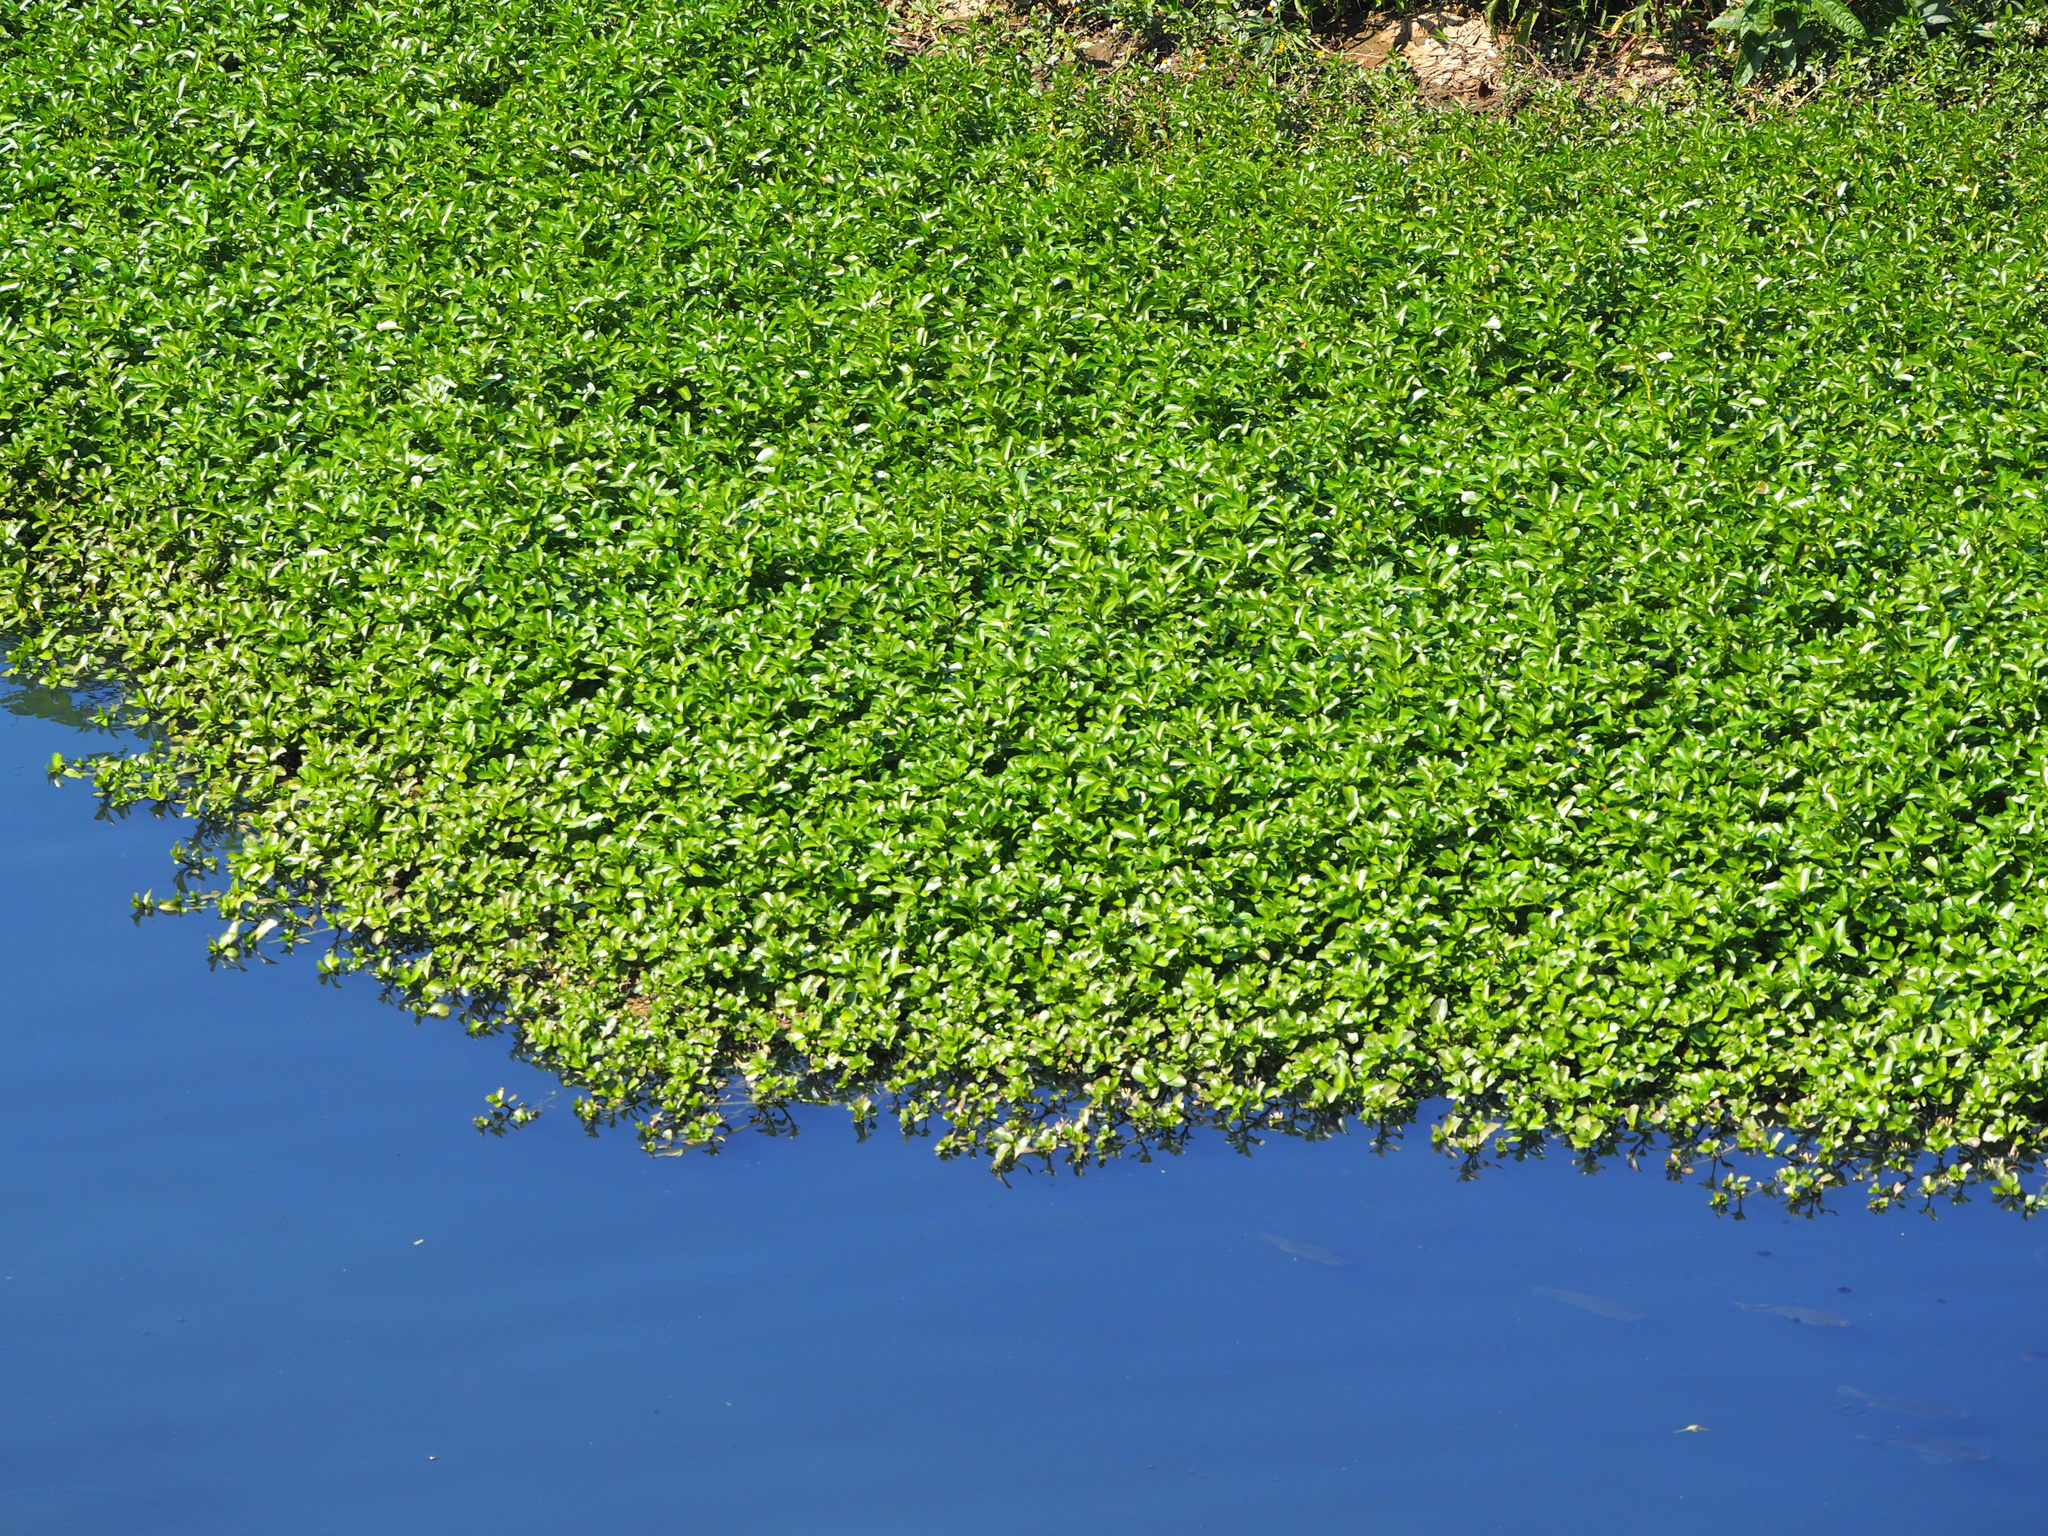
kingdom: Plantae
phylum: Tracheophyta
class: Magnoliopsida
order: Myrtales
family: Onagraceae
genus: Ludwigia
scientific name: Ludwigia taiwanensis
